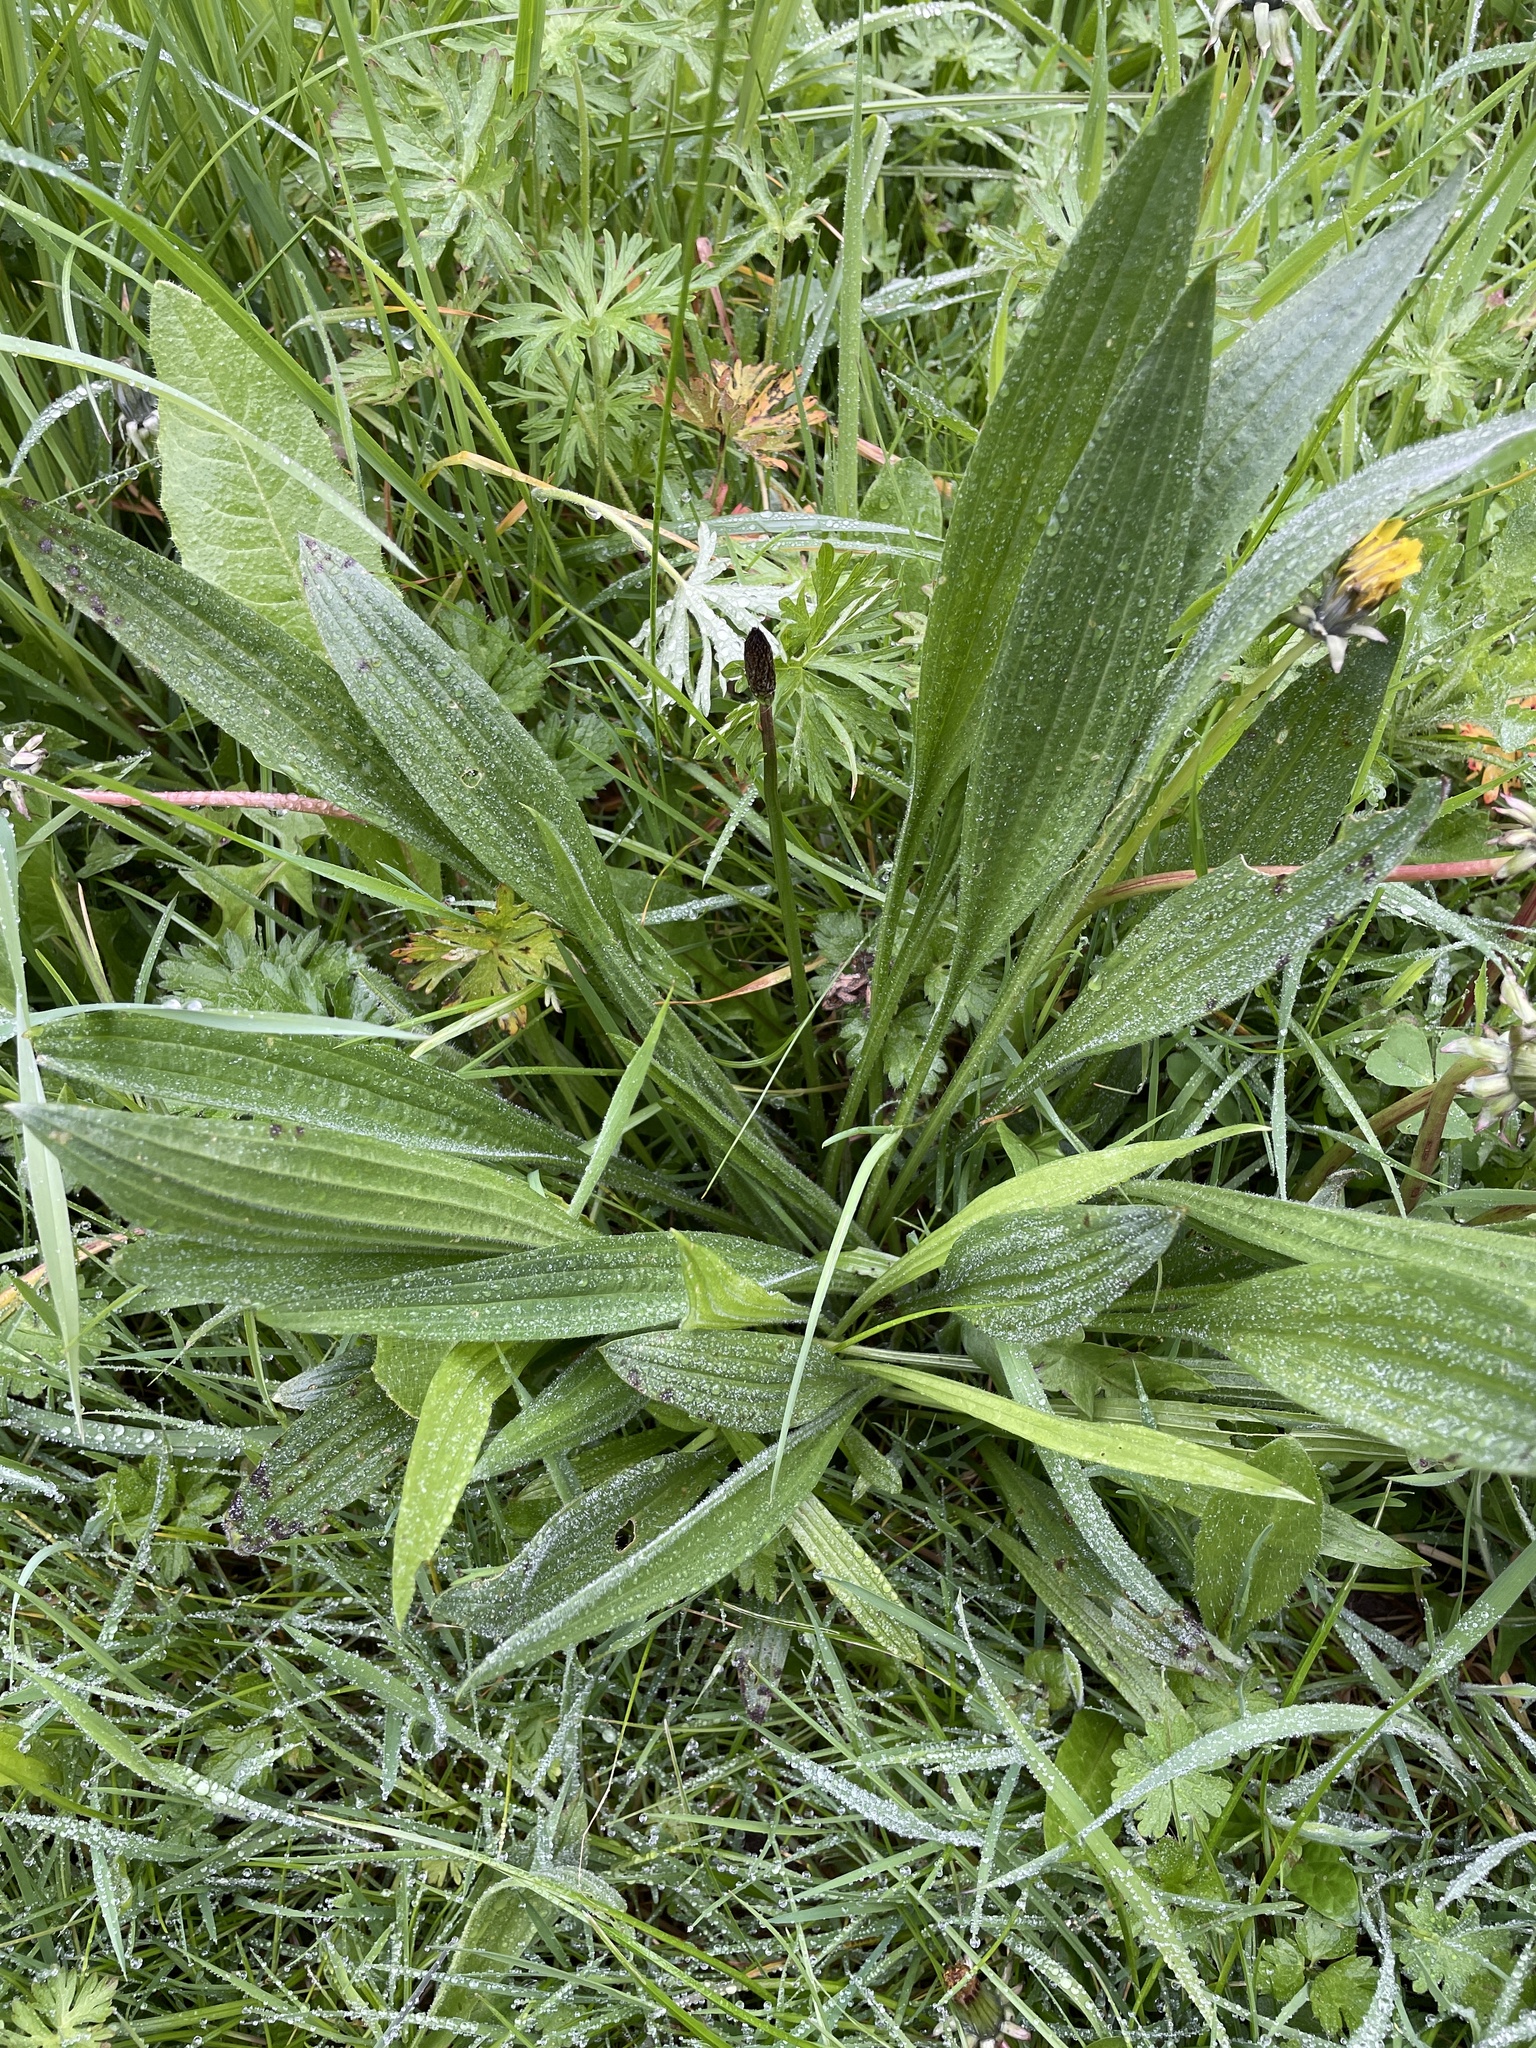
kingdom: Plantae
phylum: Tracheophyta
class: Magnoliopsida
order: Lamiales
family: Plantaginaceae
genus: Plantago
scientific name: Plantago lanceolata
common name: Ribwort plantain
